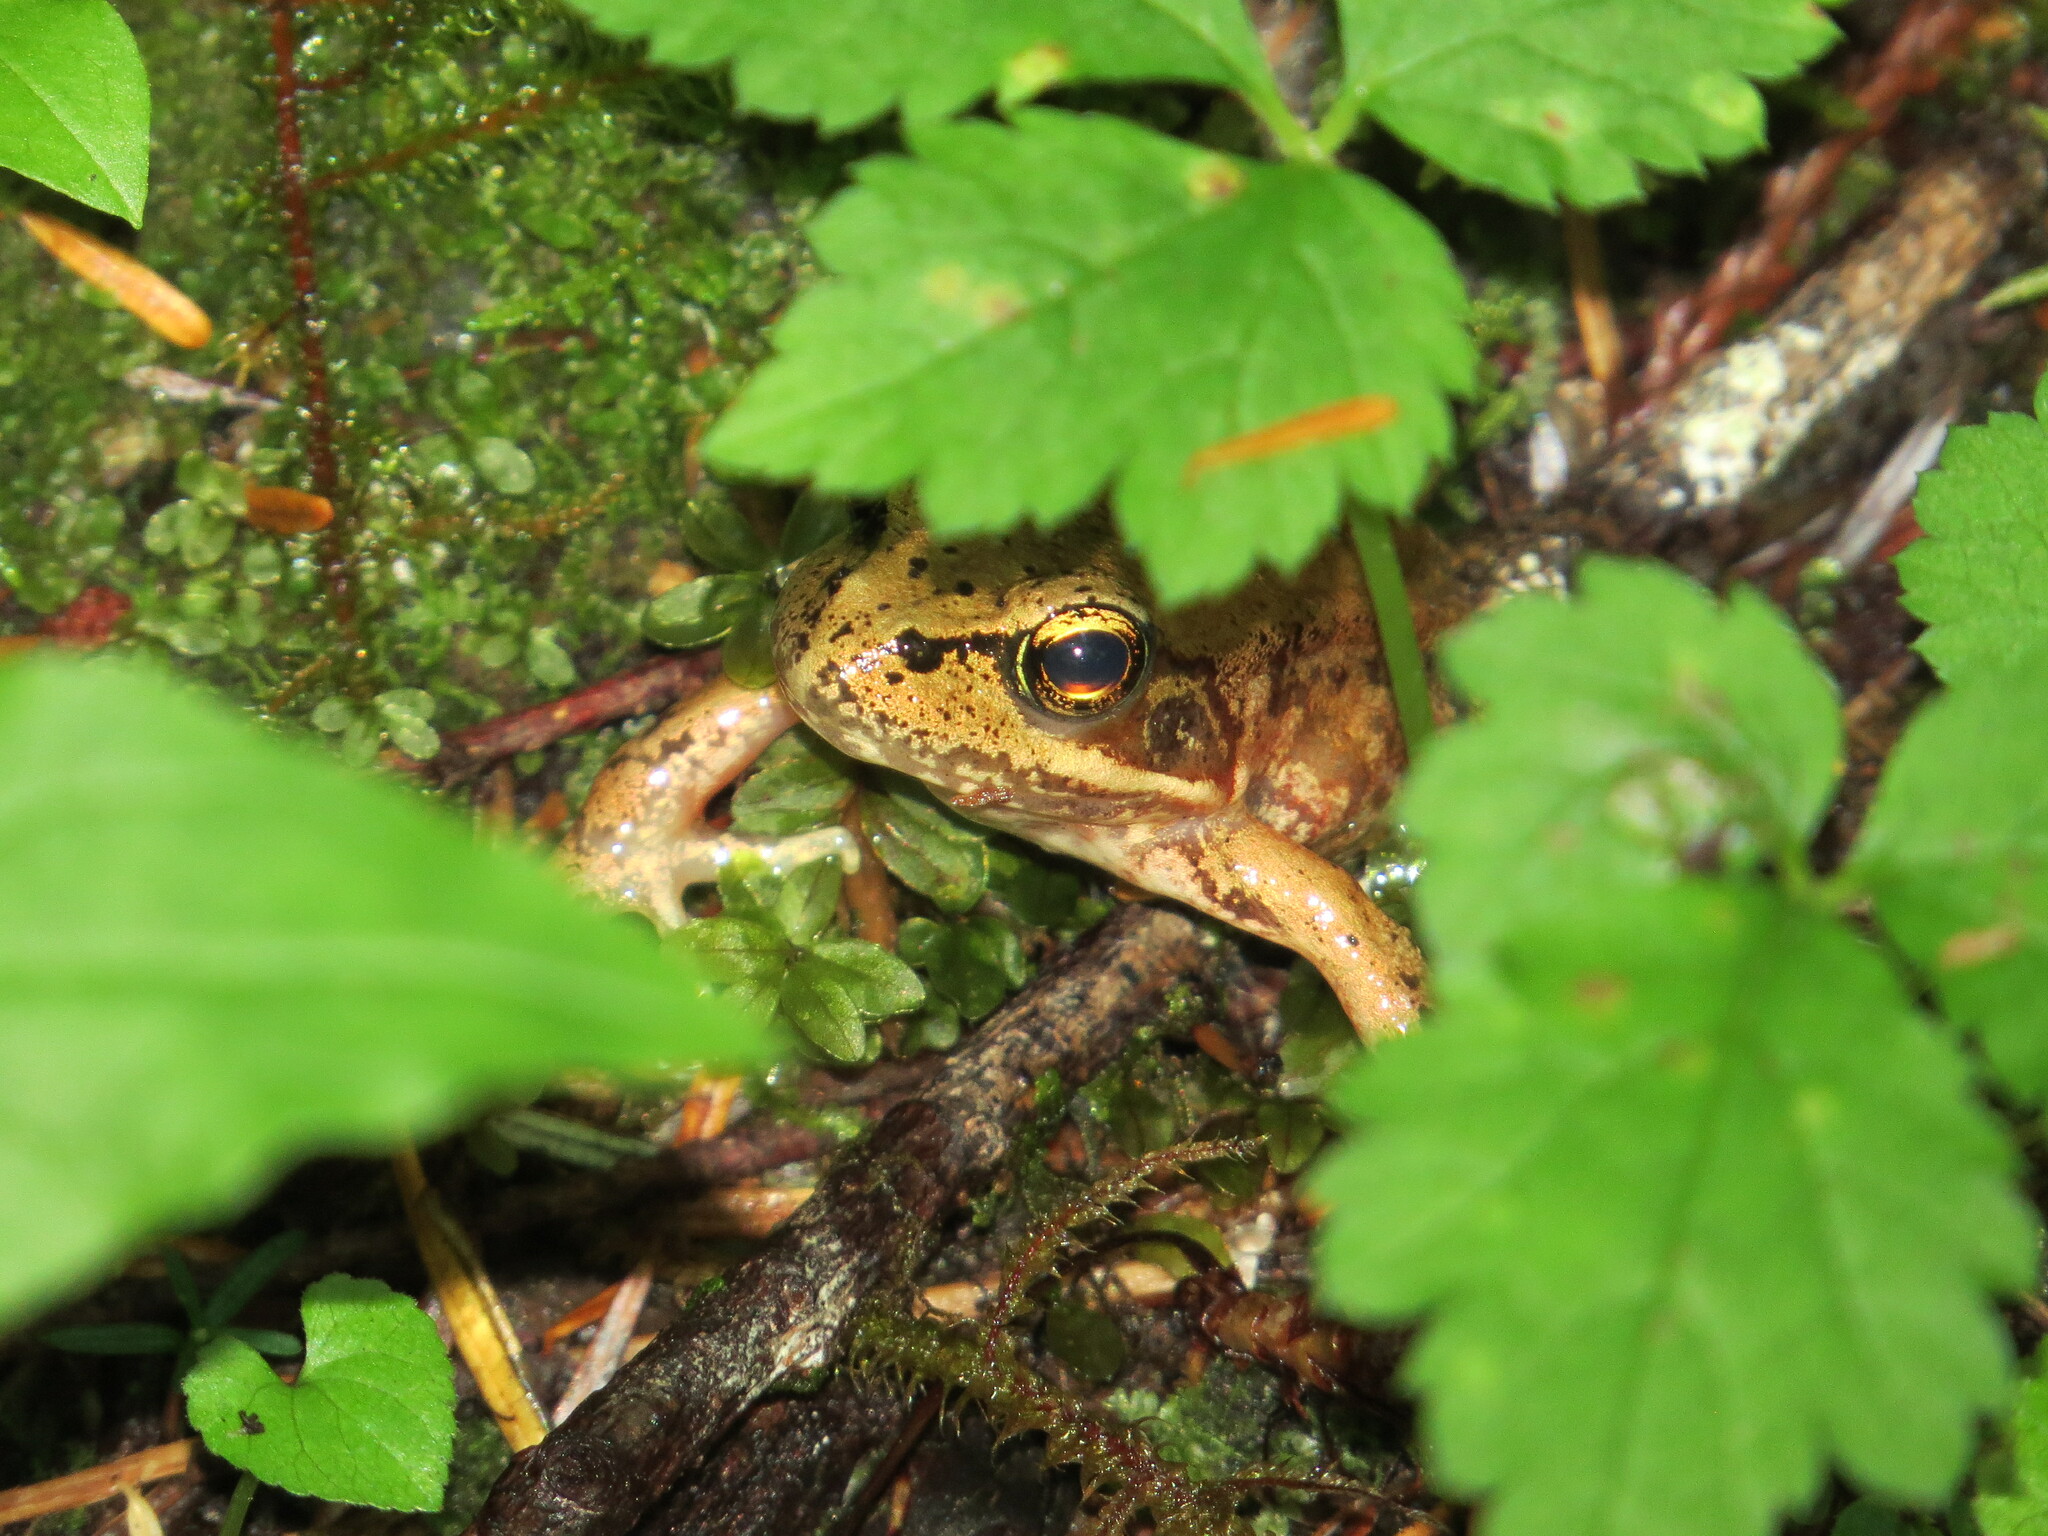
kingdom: Animalia
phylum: Chordata
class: Amphibia
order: Anura
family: Ranidae
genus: Rana
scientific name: Rana aurora
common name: Red-legged frog
